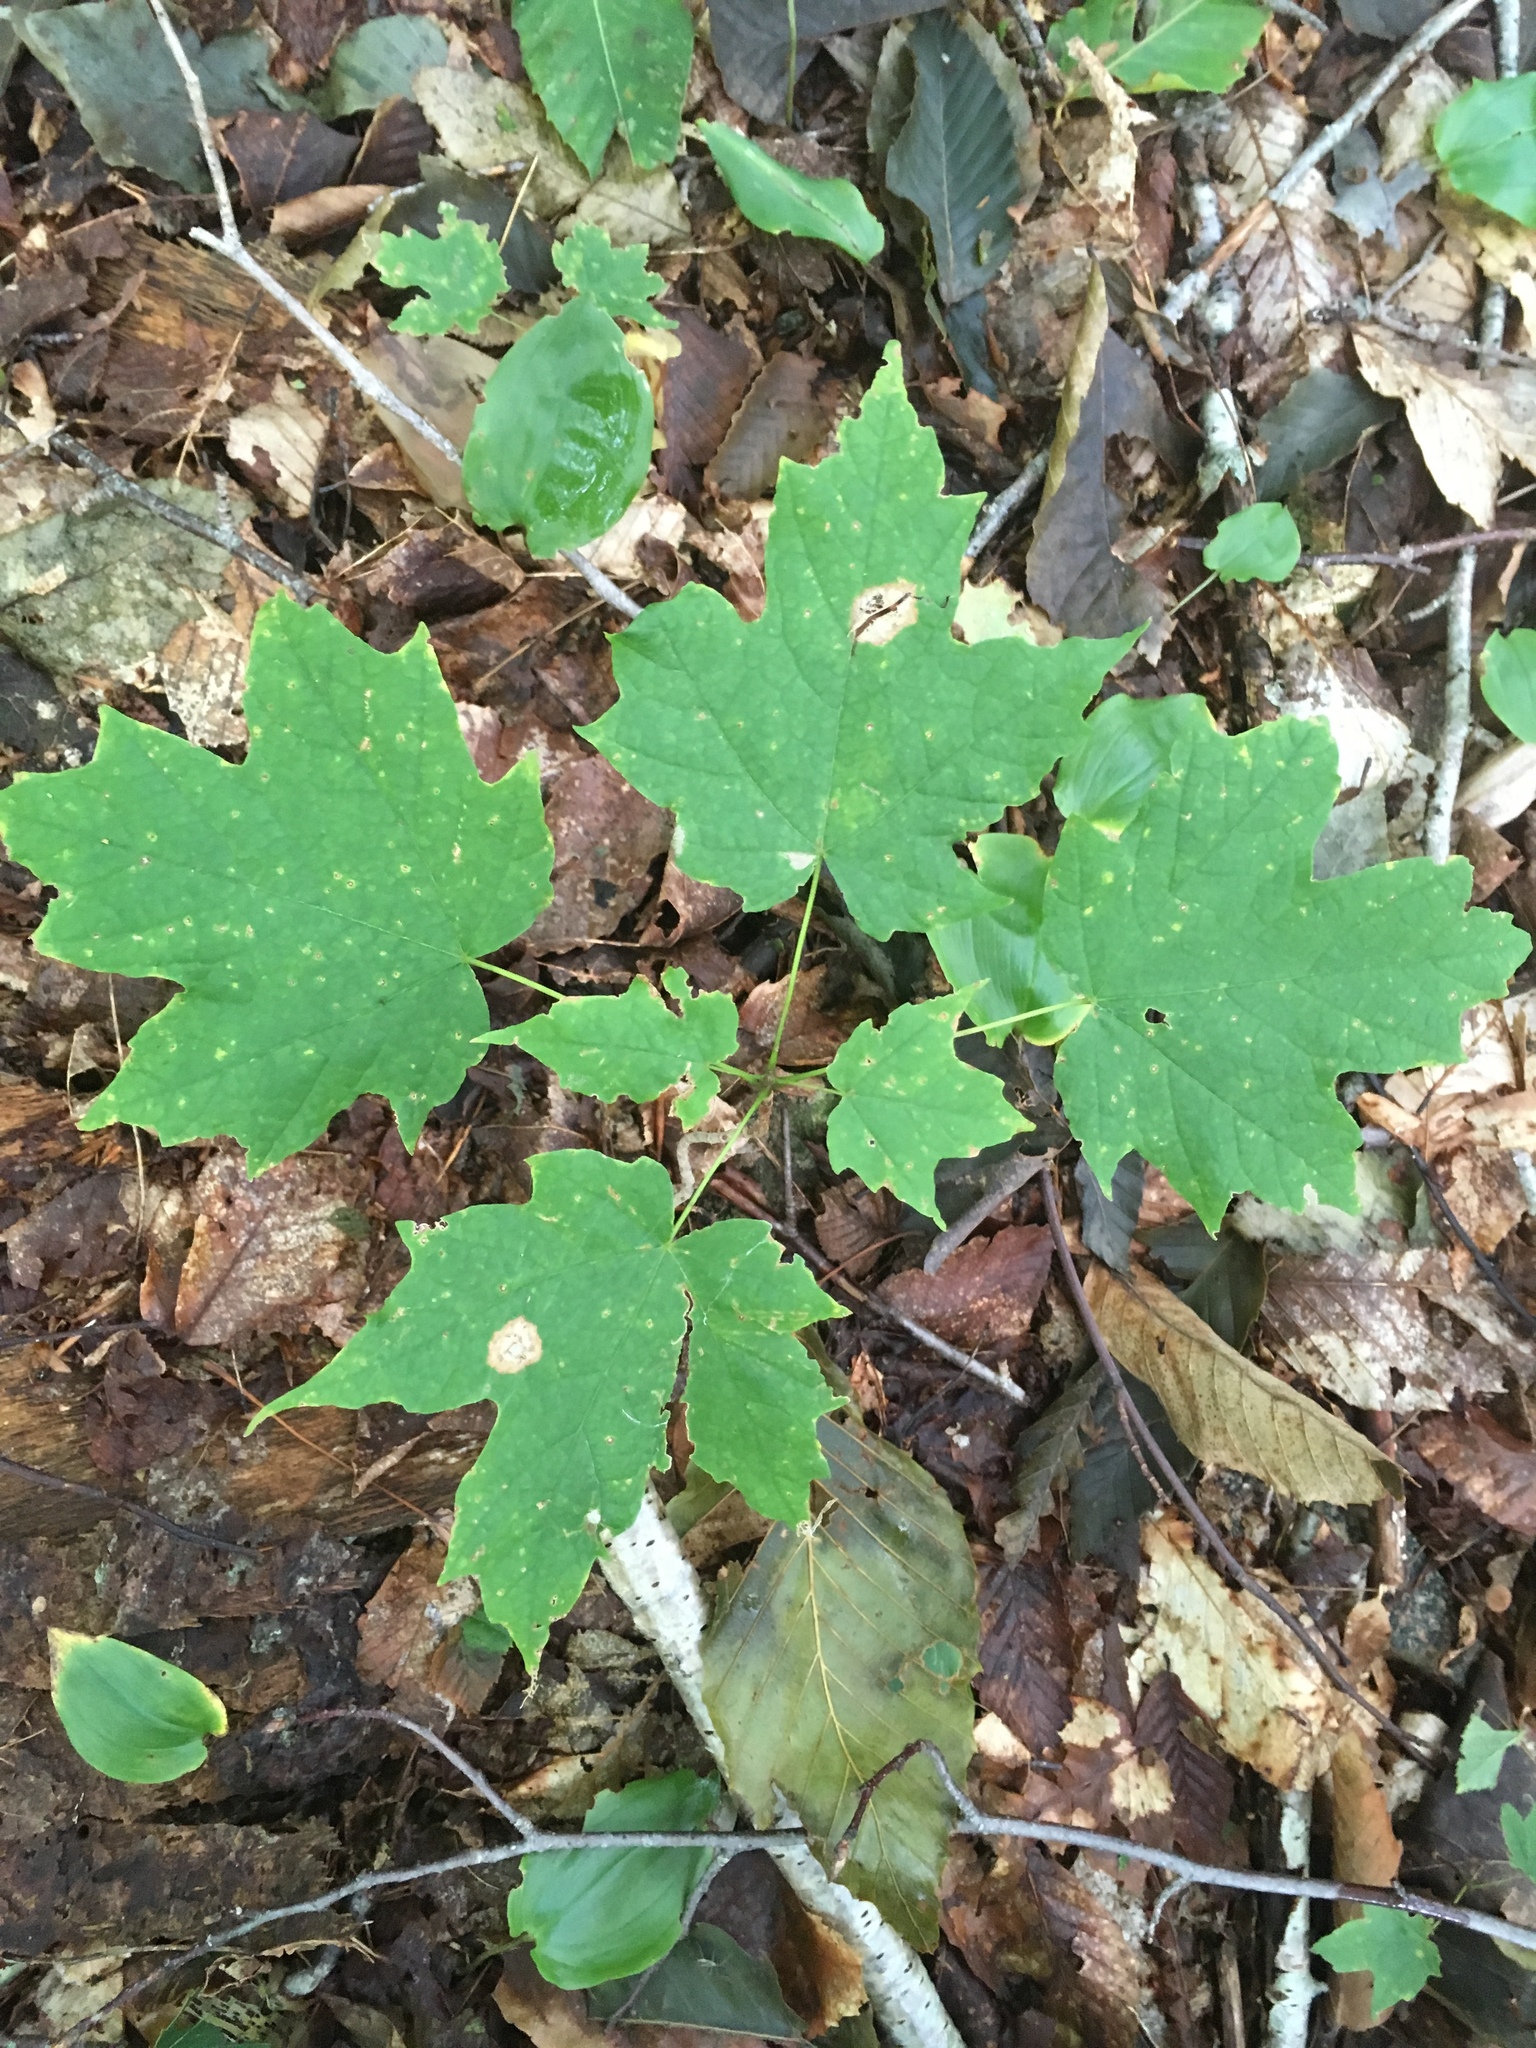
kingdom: Plantae
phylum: Tracheophyta
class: Magnoliopsida
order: Sapindales
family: Sapindaceae
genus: Acer
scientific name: Acer saccharum
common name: Sugar maple
